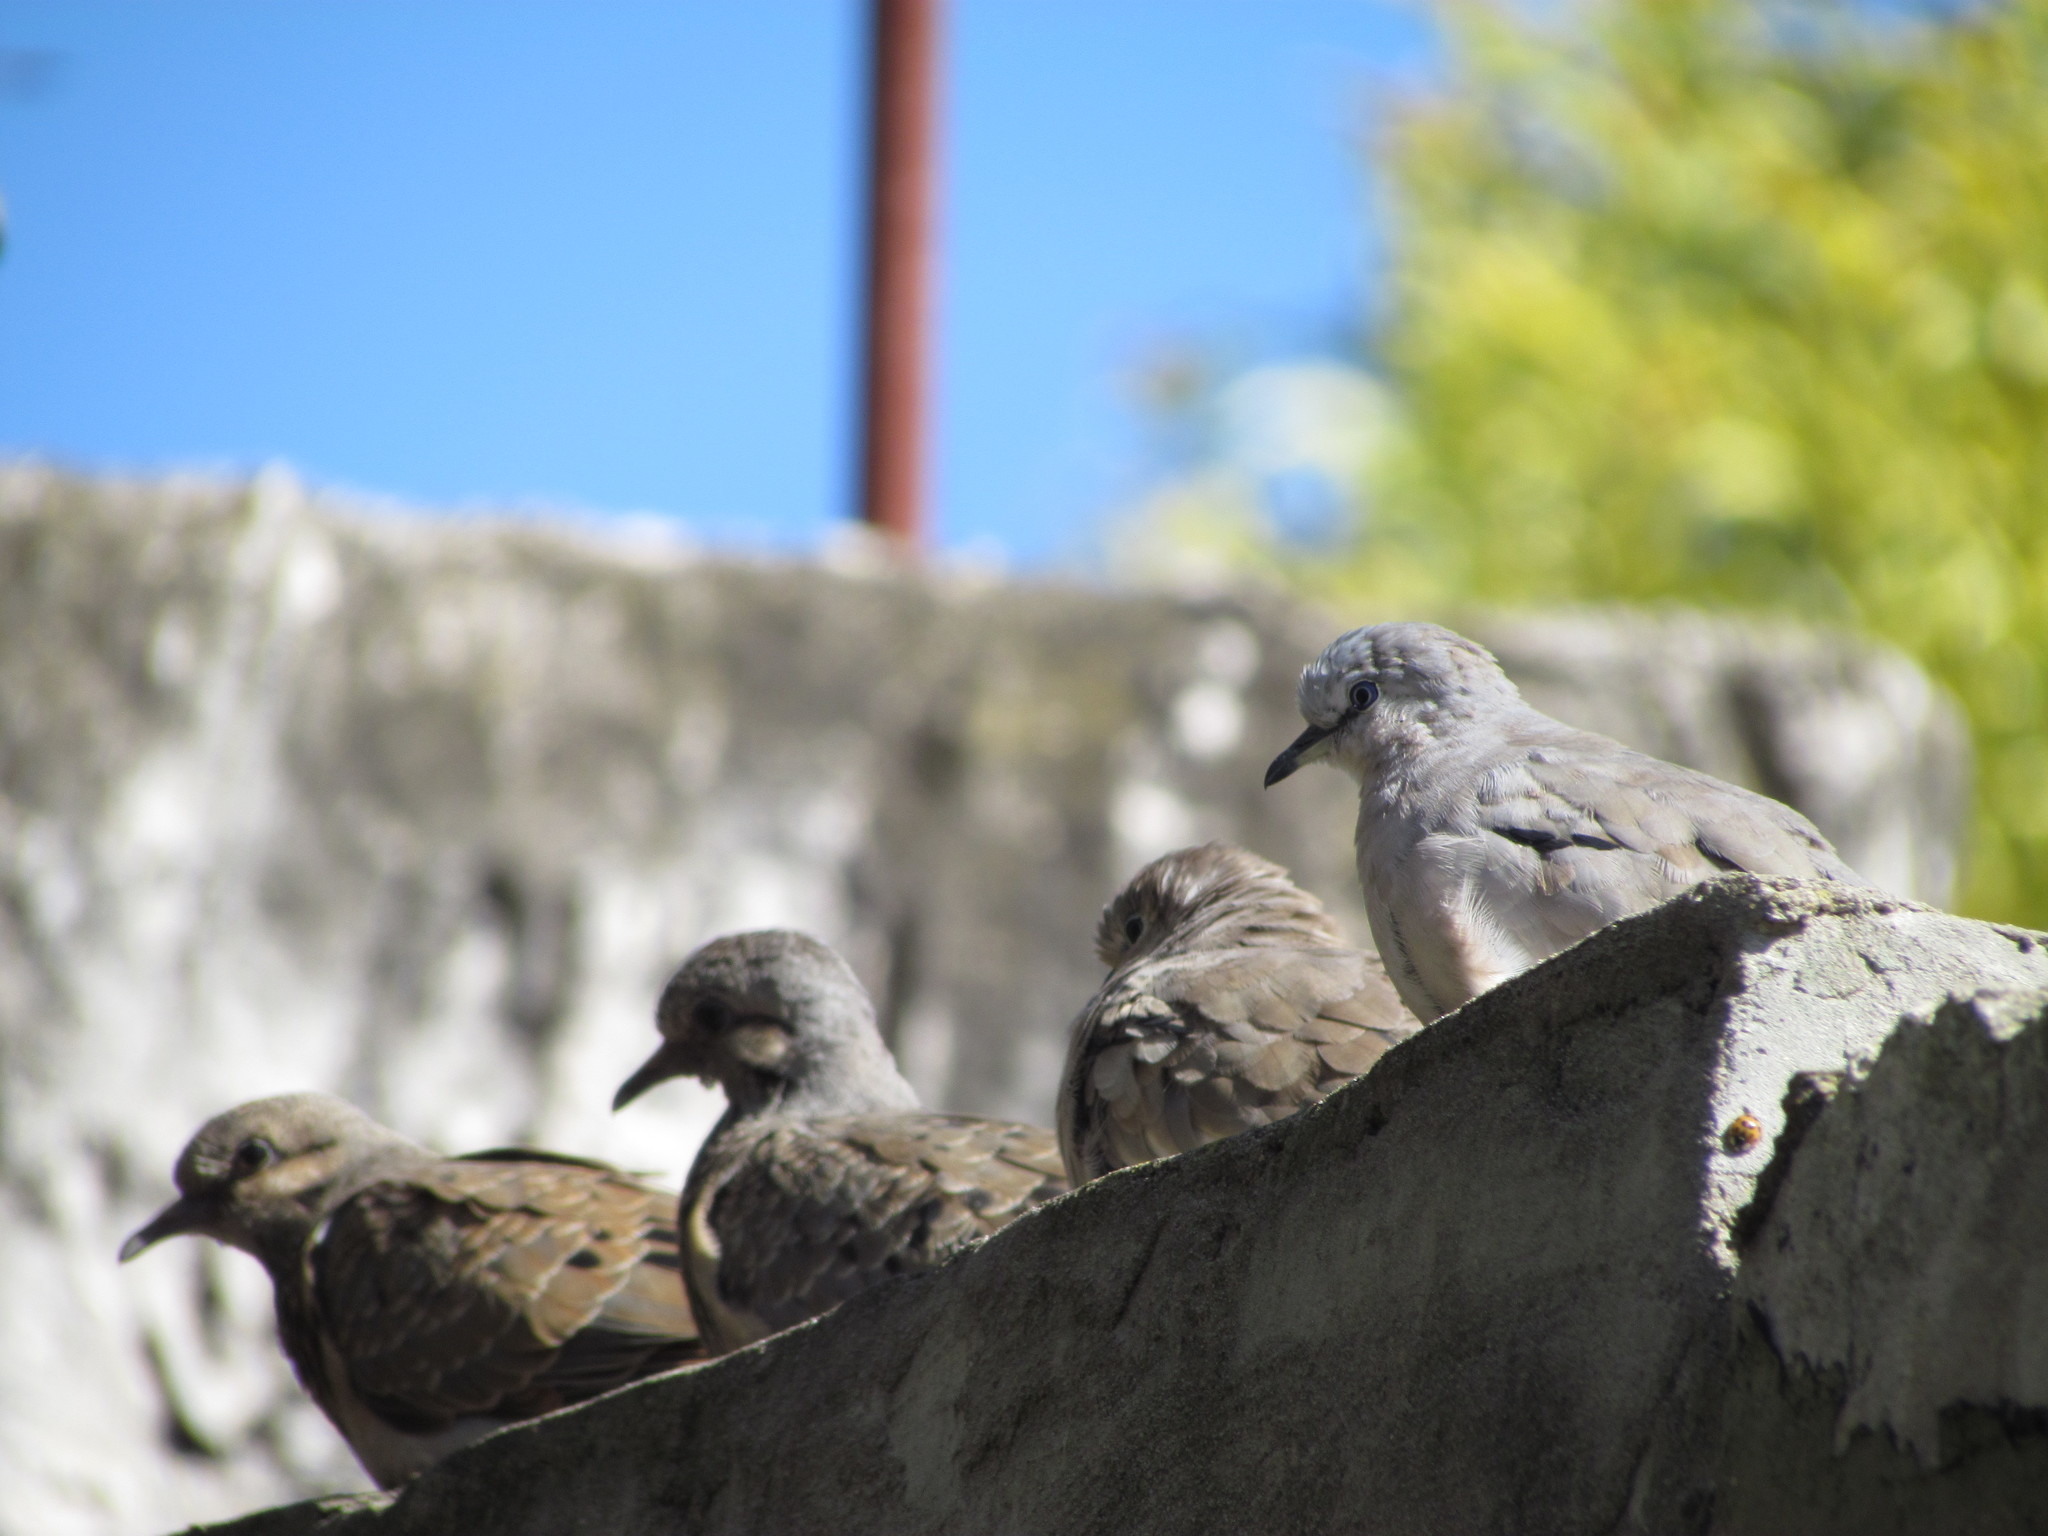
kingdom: Animalia
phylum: Chordata
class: Aves
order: Columbiformes
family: Columbidae
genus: Columbina
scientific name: Columbina picui
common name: Picui ground dove
